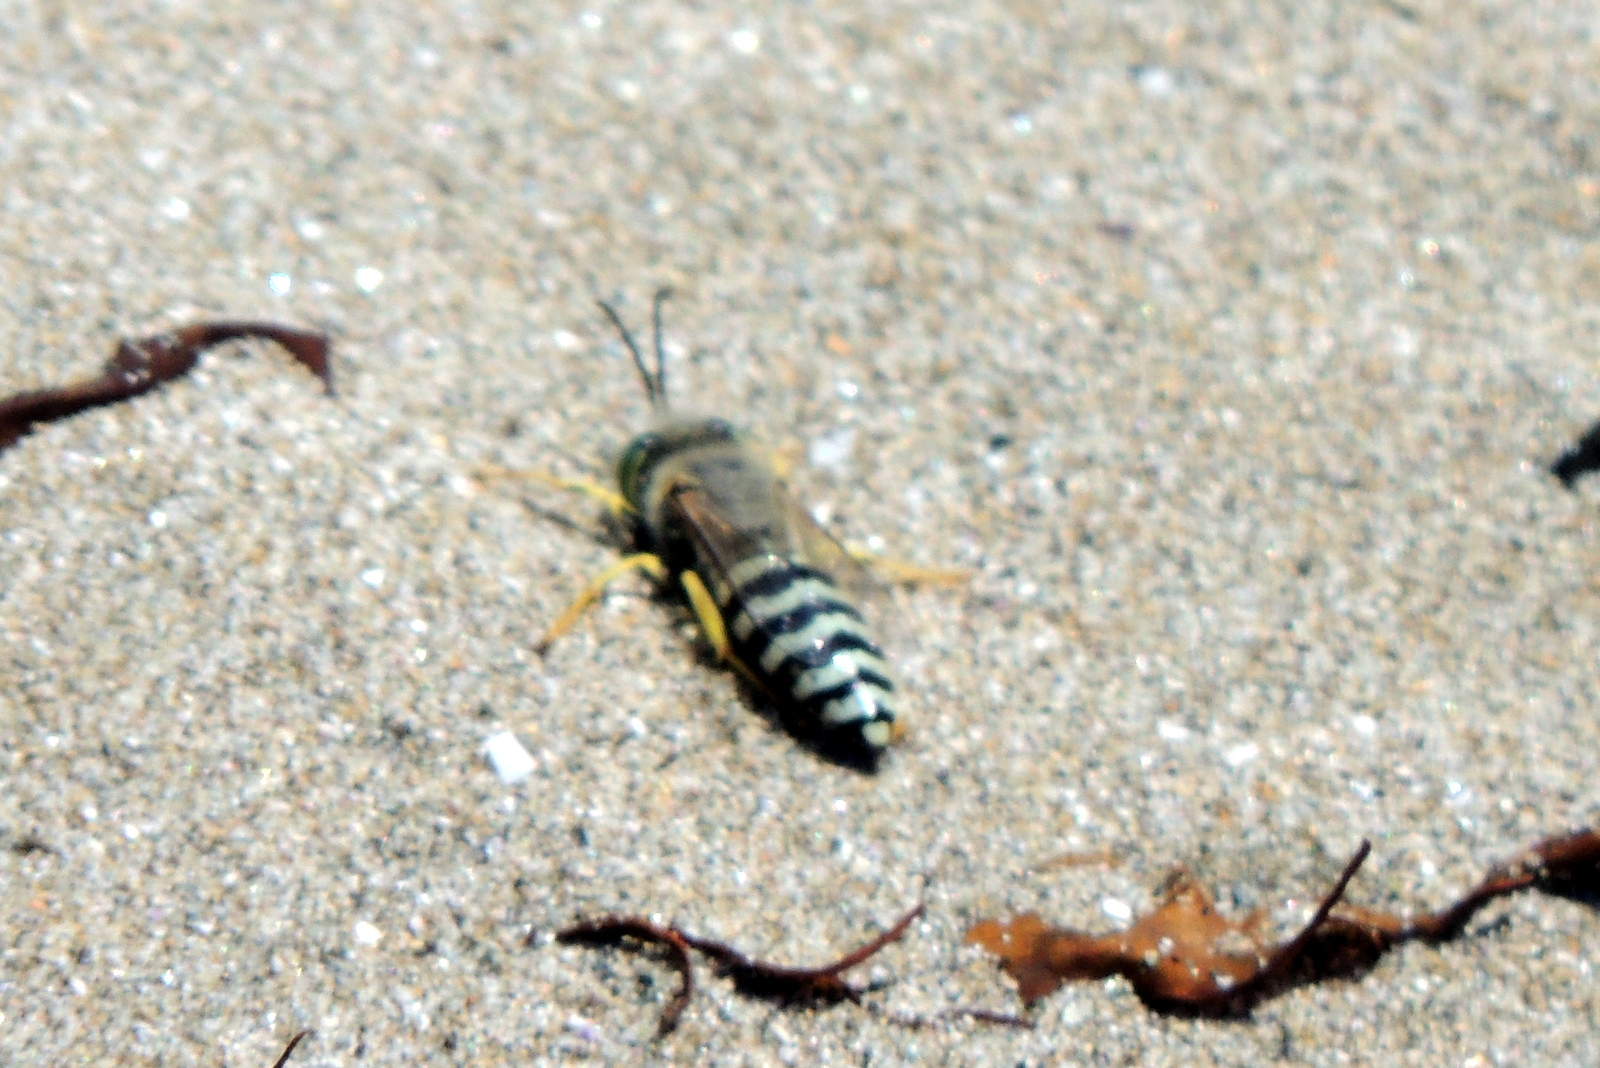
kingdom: Animalia
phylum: Arthropoda
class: Insecta
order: Hymenoptera
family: Crabronidae
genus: Bembix
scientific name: Bembix americana
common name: American sand wasp
